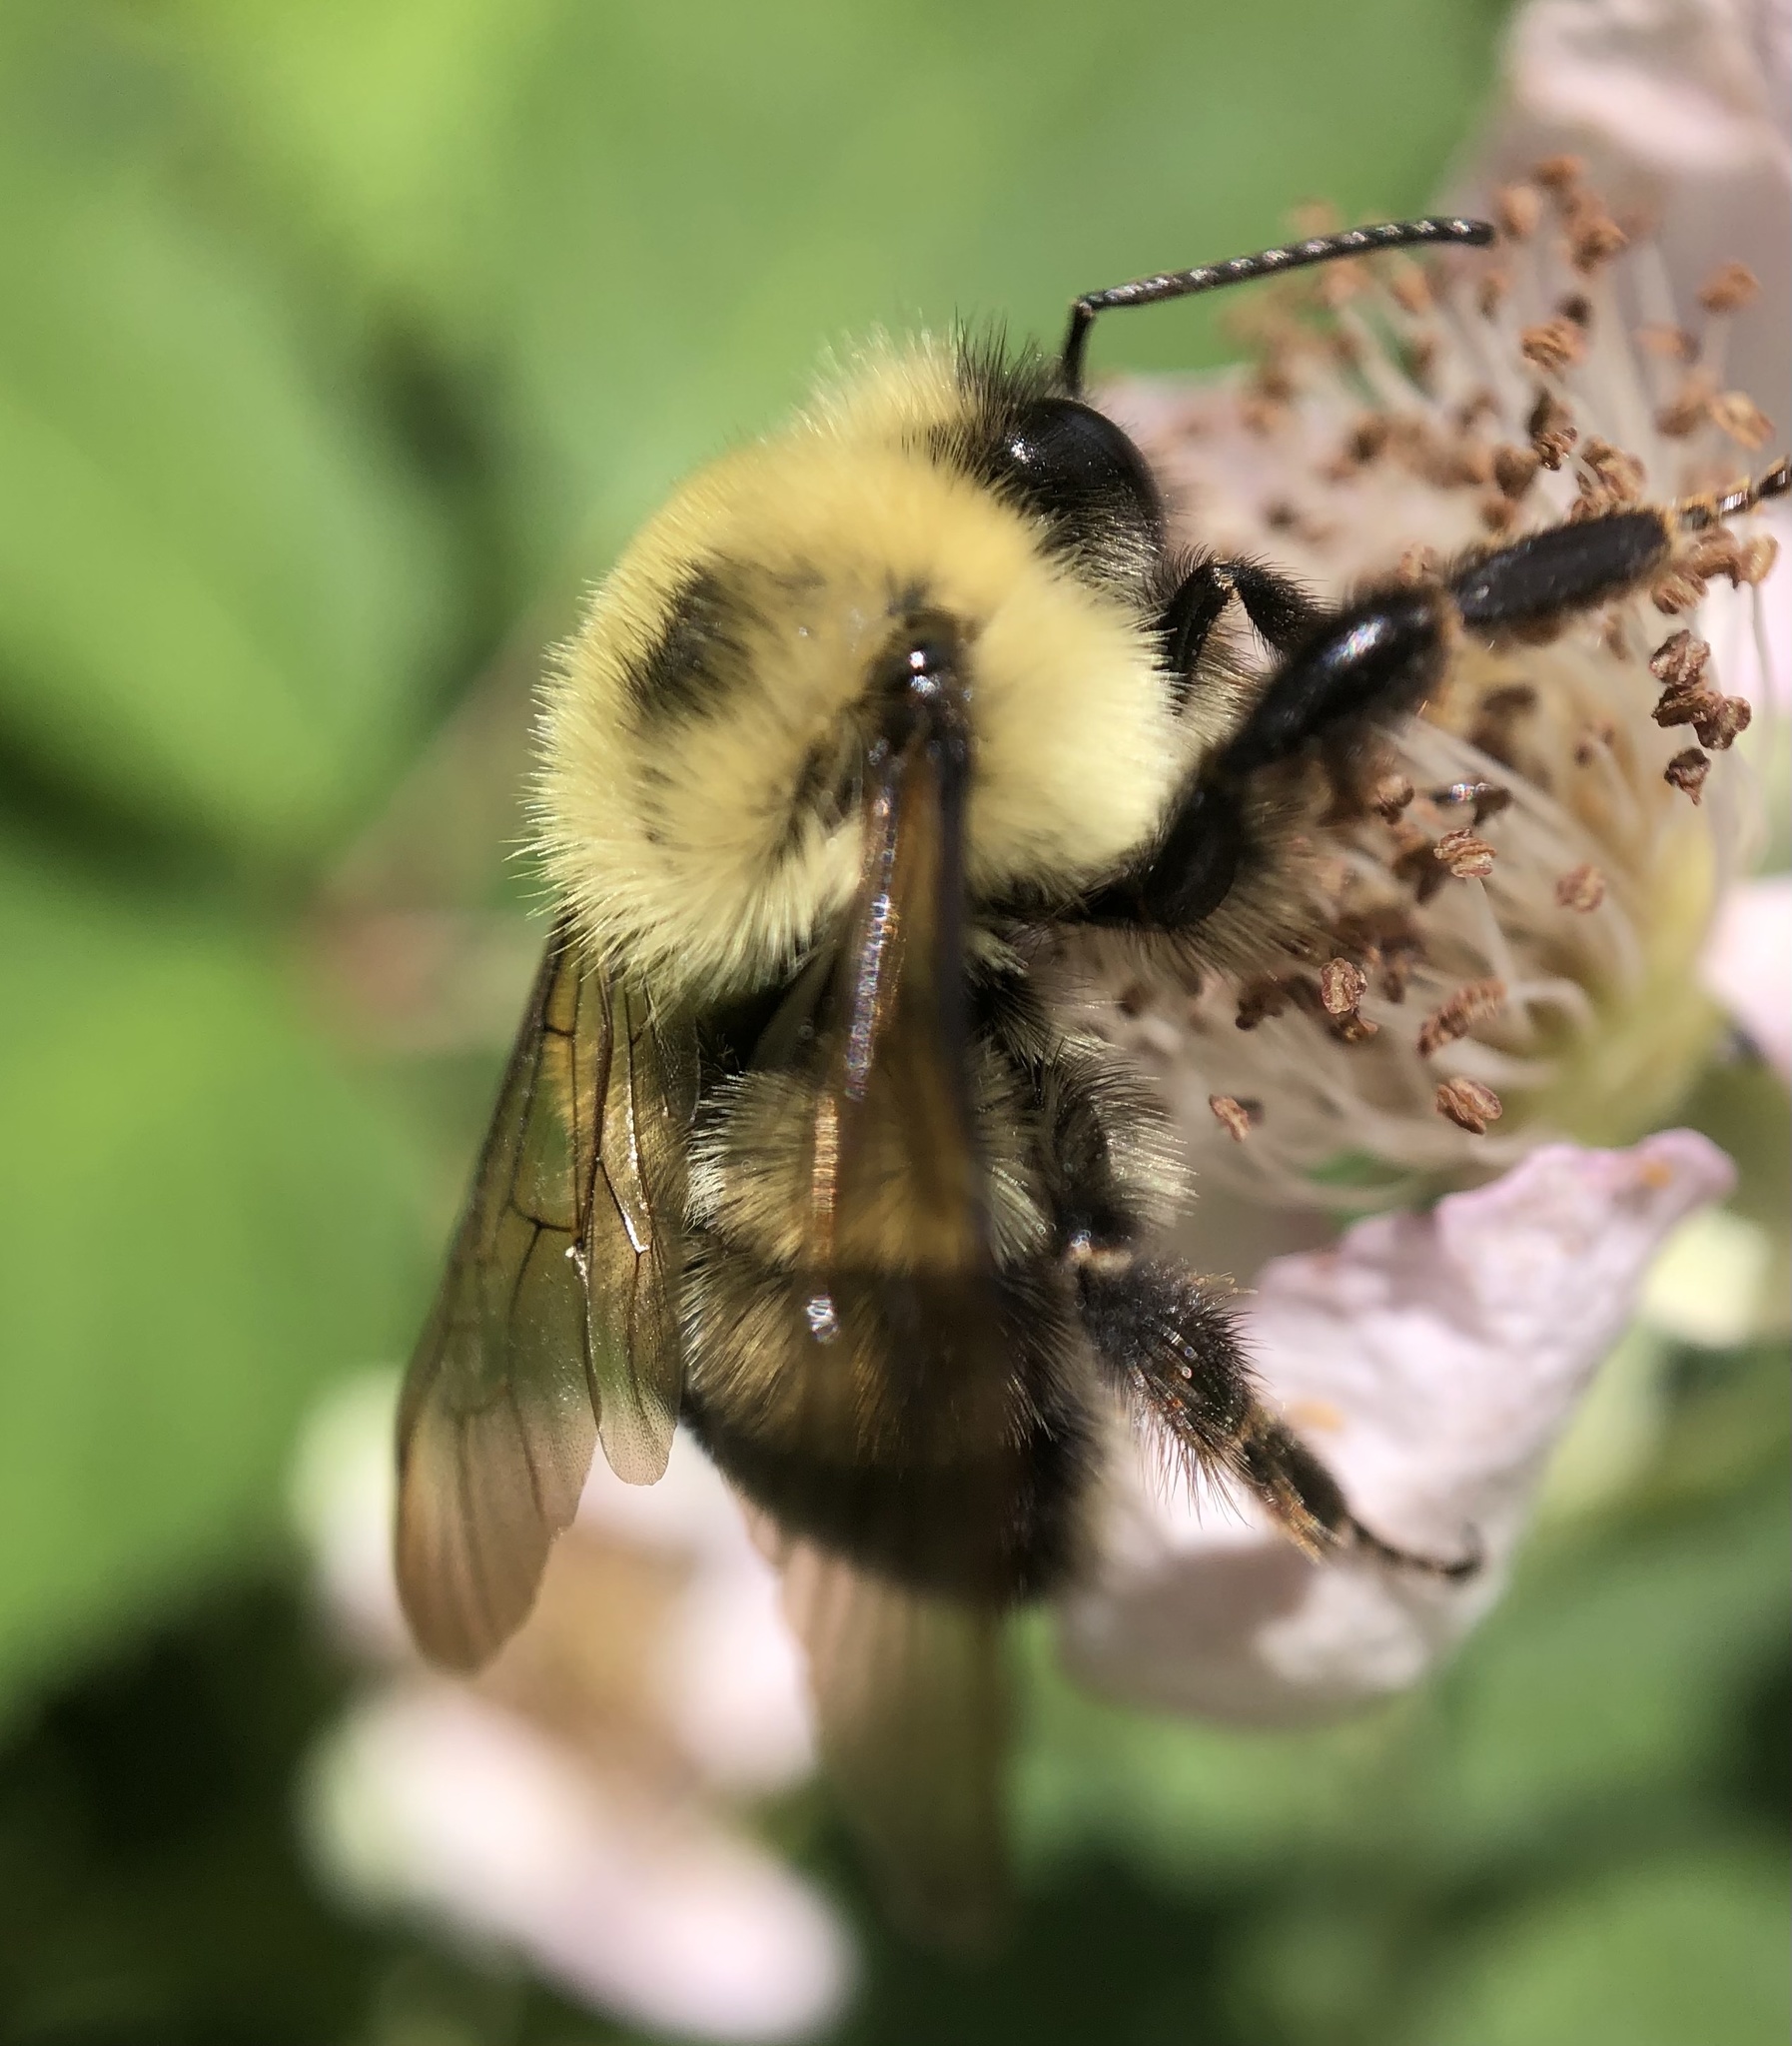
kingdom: Animalia
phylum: Arthropoda
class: Insecta
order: Hymenoptera
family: Apidae
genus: Bombus
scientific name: Bombus bimaculatus
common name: Two-spotted bumble bee
